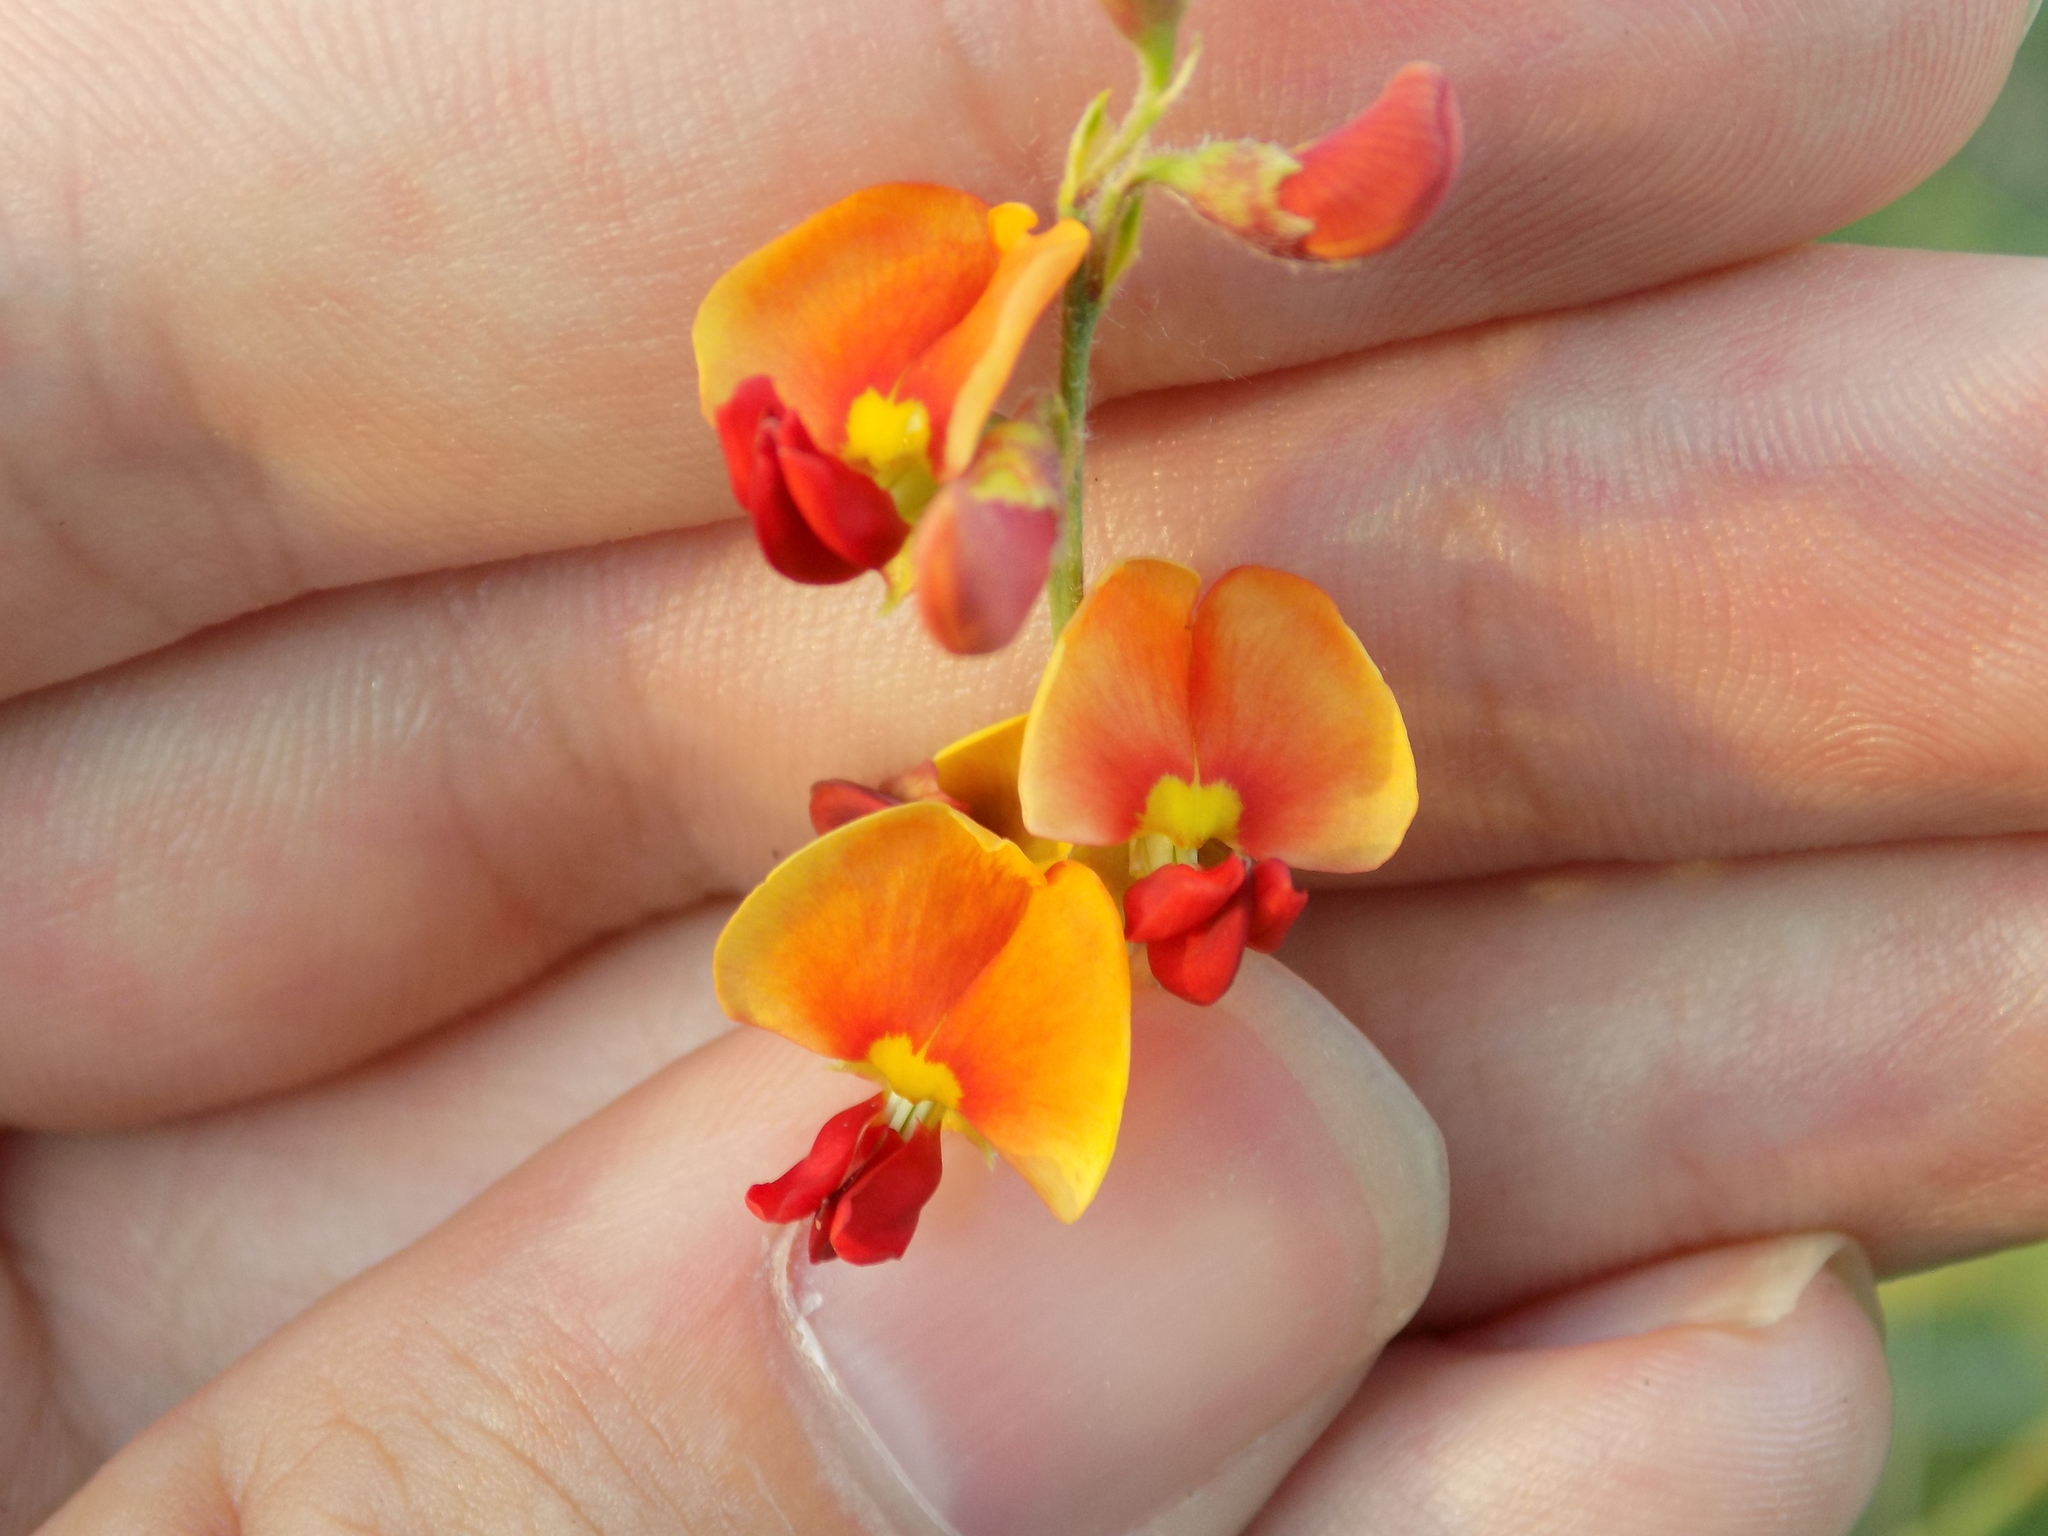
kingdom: Plantae
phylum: Tracheophyta
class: Magnoliopsida
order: Fabales
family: Fabaceae
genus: Sesbania
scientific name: Sesbania vesicaria
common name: Bagpod
